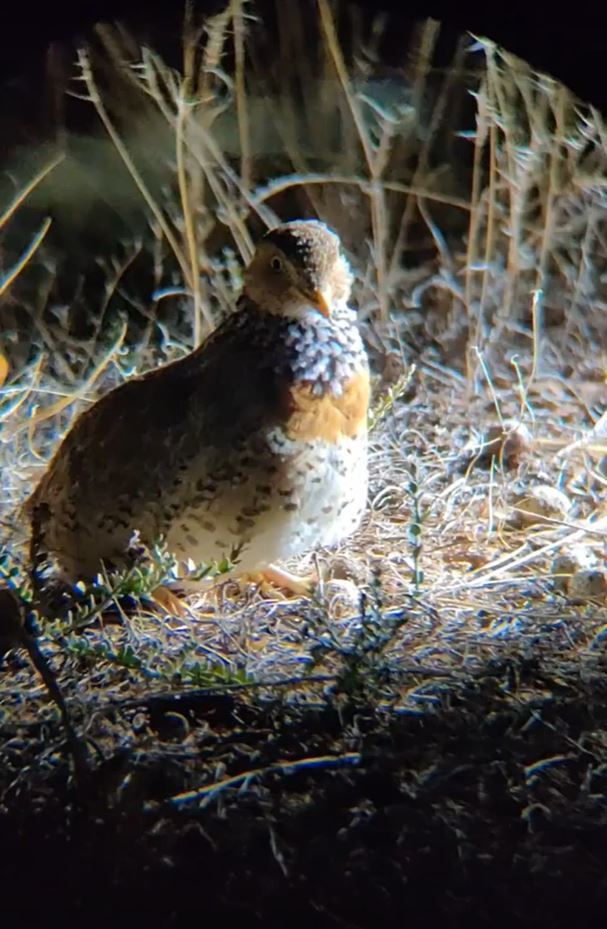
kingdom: Animalia
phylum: Chordata
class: Aves
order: Charadriiformes
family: Pedionomidae
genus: Pedionomus
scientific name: Pedionomus torquatus
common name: Plains-wanderer
